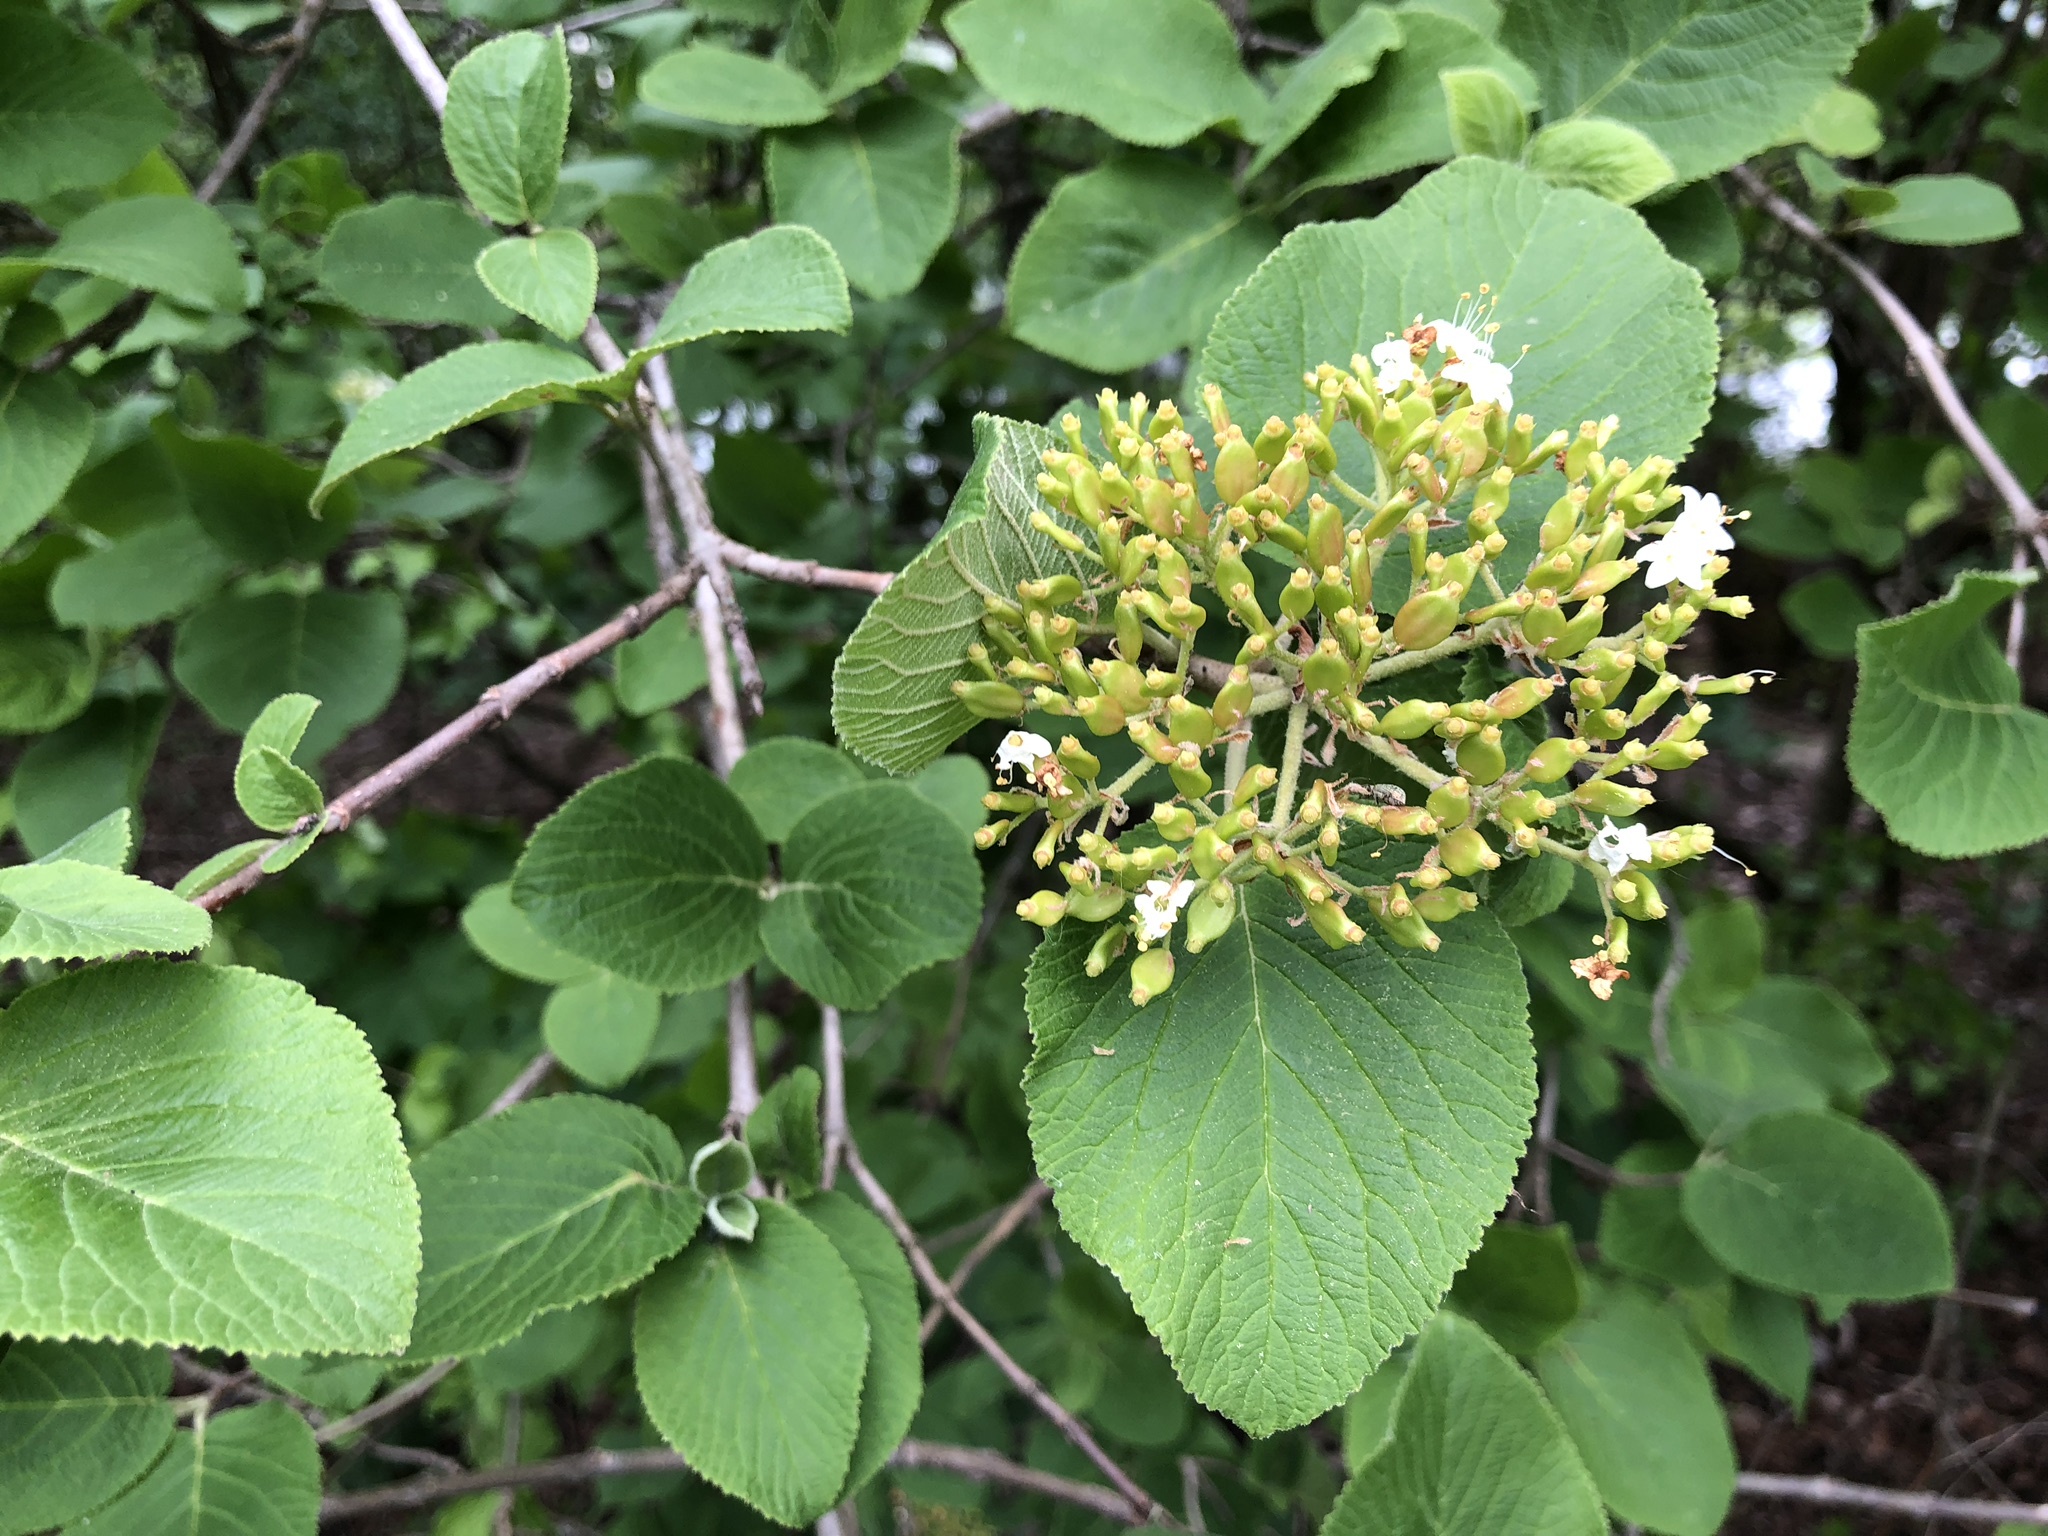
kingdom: Plantae
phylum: Tracheophyta
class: Magnoliopsida
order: Dipsacales
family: Viburnaceae
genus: Viburnum
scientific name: Viburnum lantana
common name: Wayfaring tree
